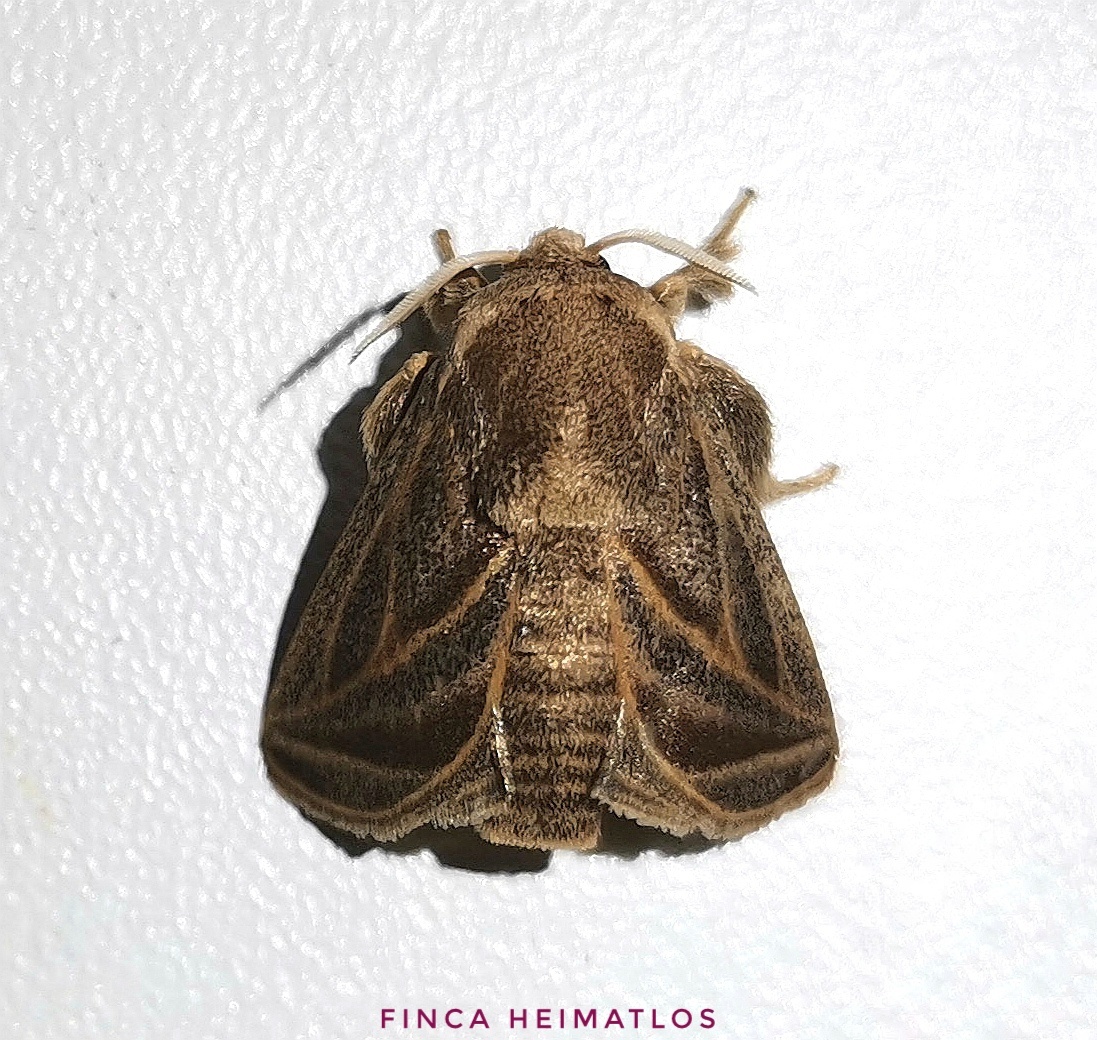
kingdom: Animalia
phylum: Arthropoda
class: Insecta
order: Lepidoptera
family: Limacodidae
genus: Natada
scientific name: Natada fusca
